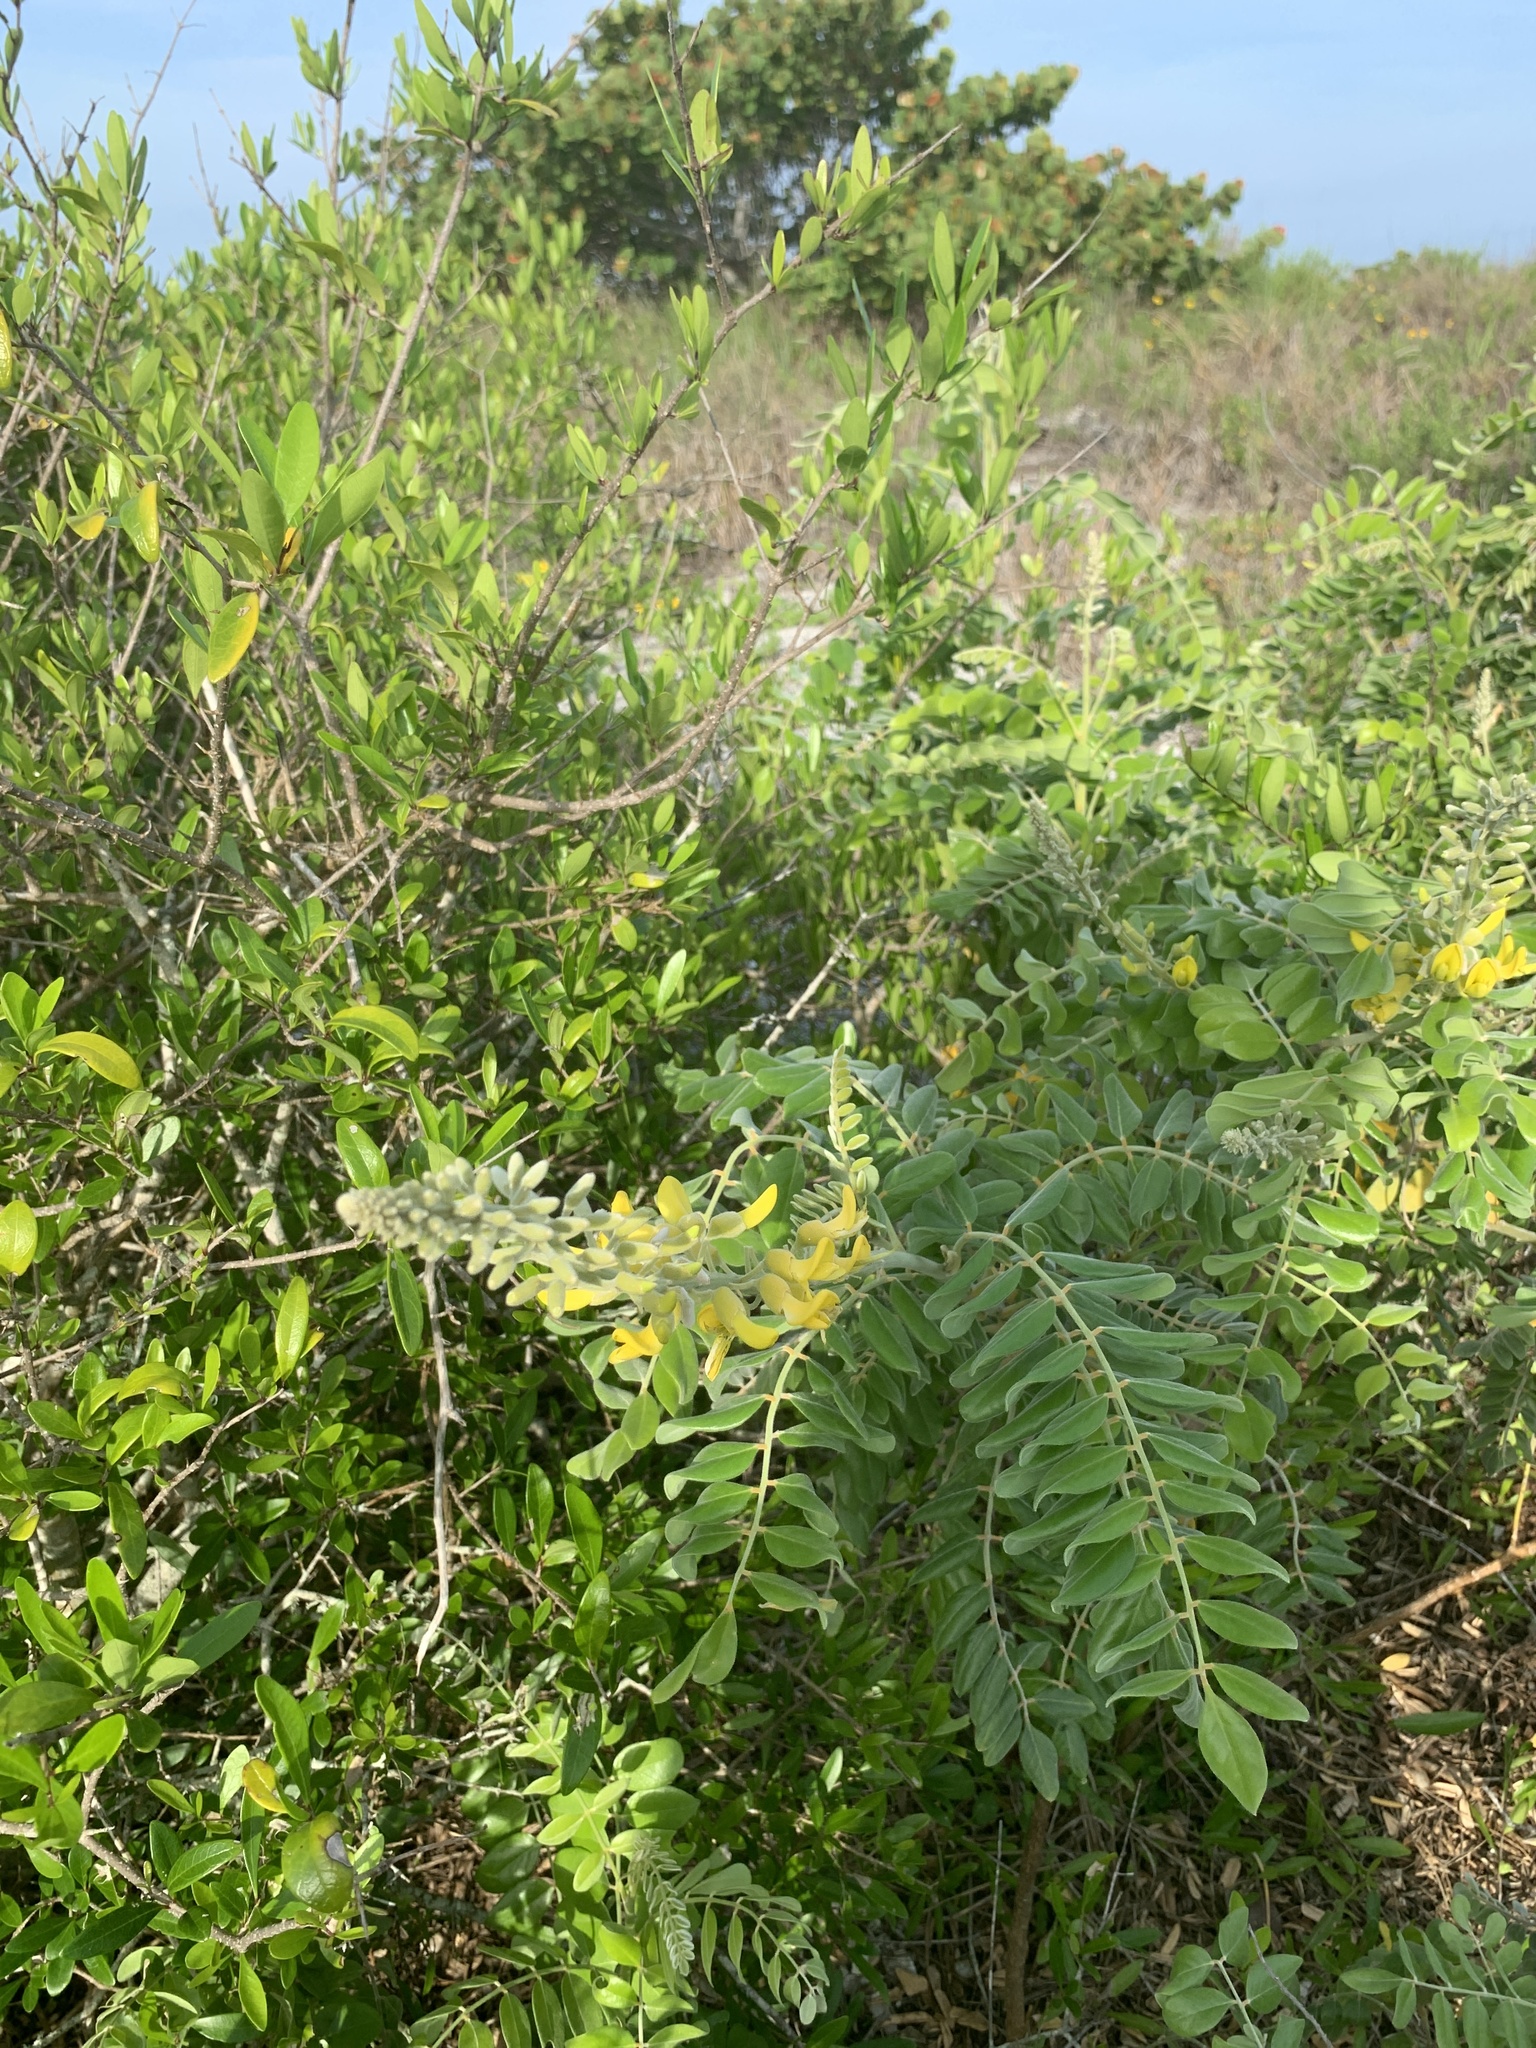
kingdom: Plantae
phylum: Tracheophyta
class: Magnoliopsida
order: Fabales
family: Fabaceae
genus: Sophora
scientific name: Sophora tomentosa
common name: Yellow necklacepod
